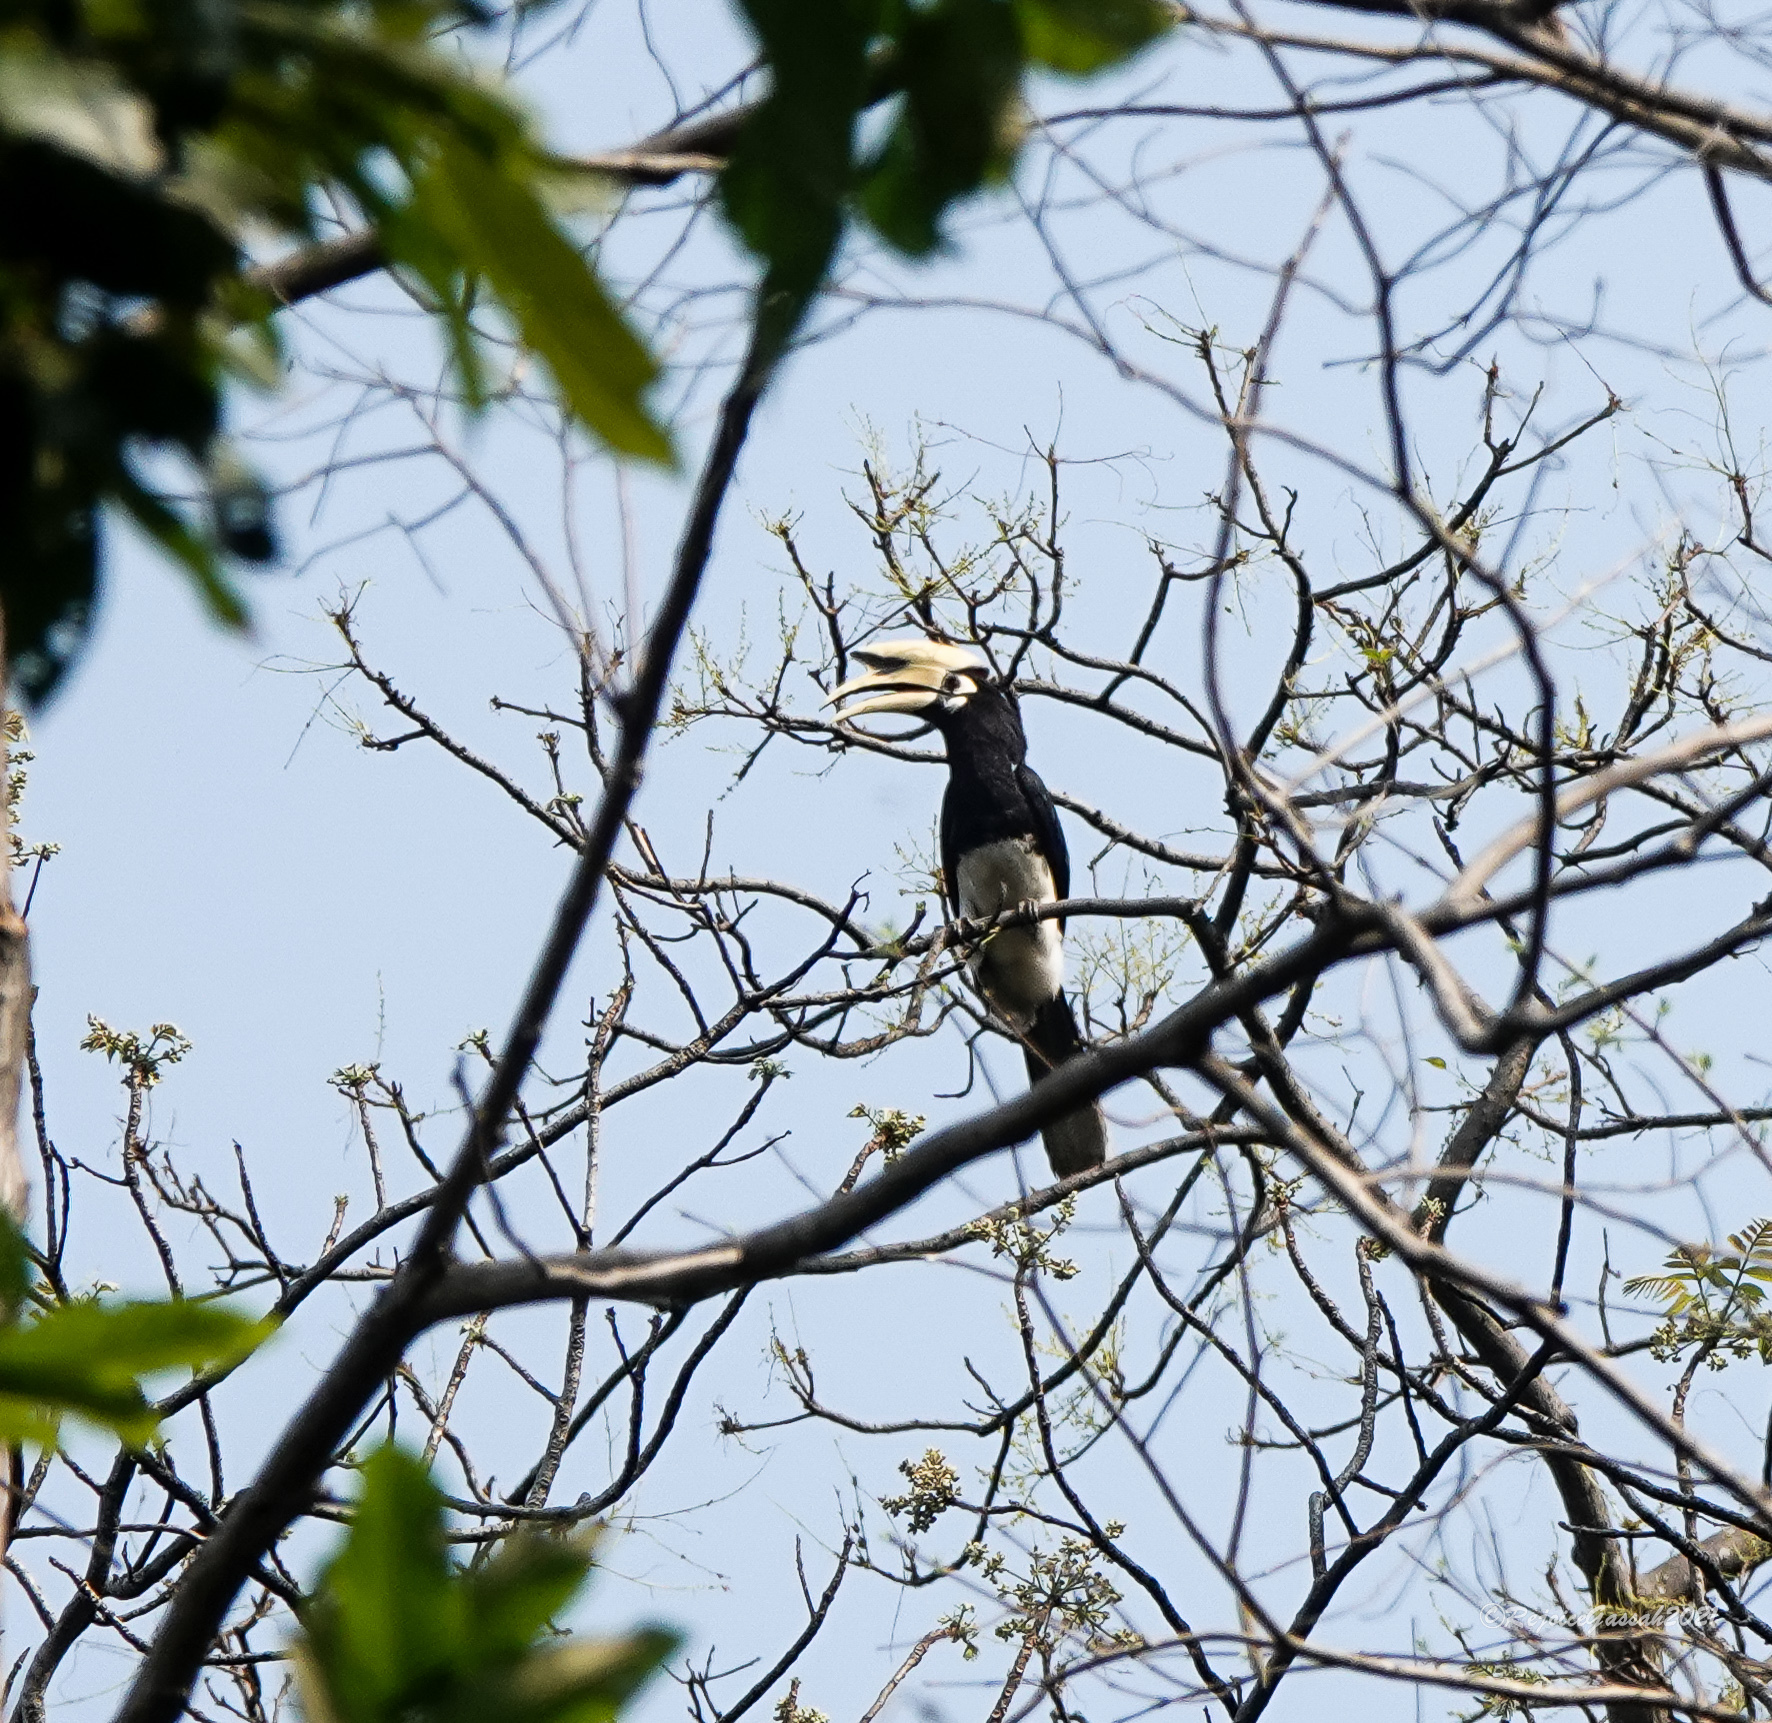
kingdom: Animalia
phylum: Chordata
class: Aves
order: Bucerotiformes
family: Bucerotidae
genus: Anthracoceros
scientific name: Anthracoceros albirostris
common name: Oriental pied-hornbill
